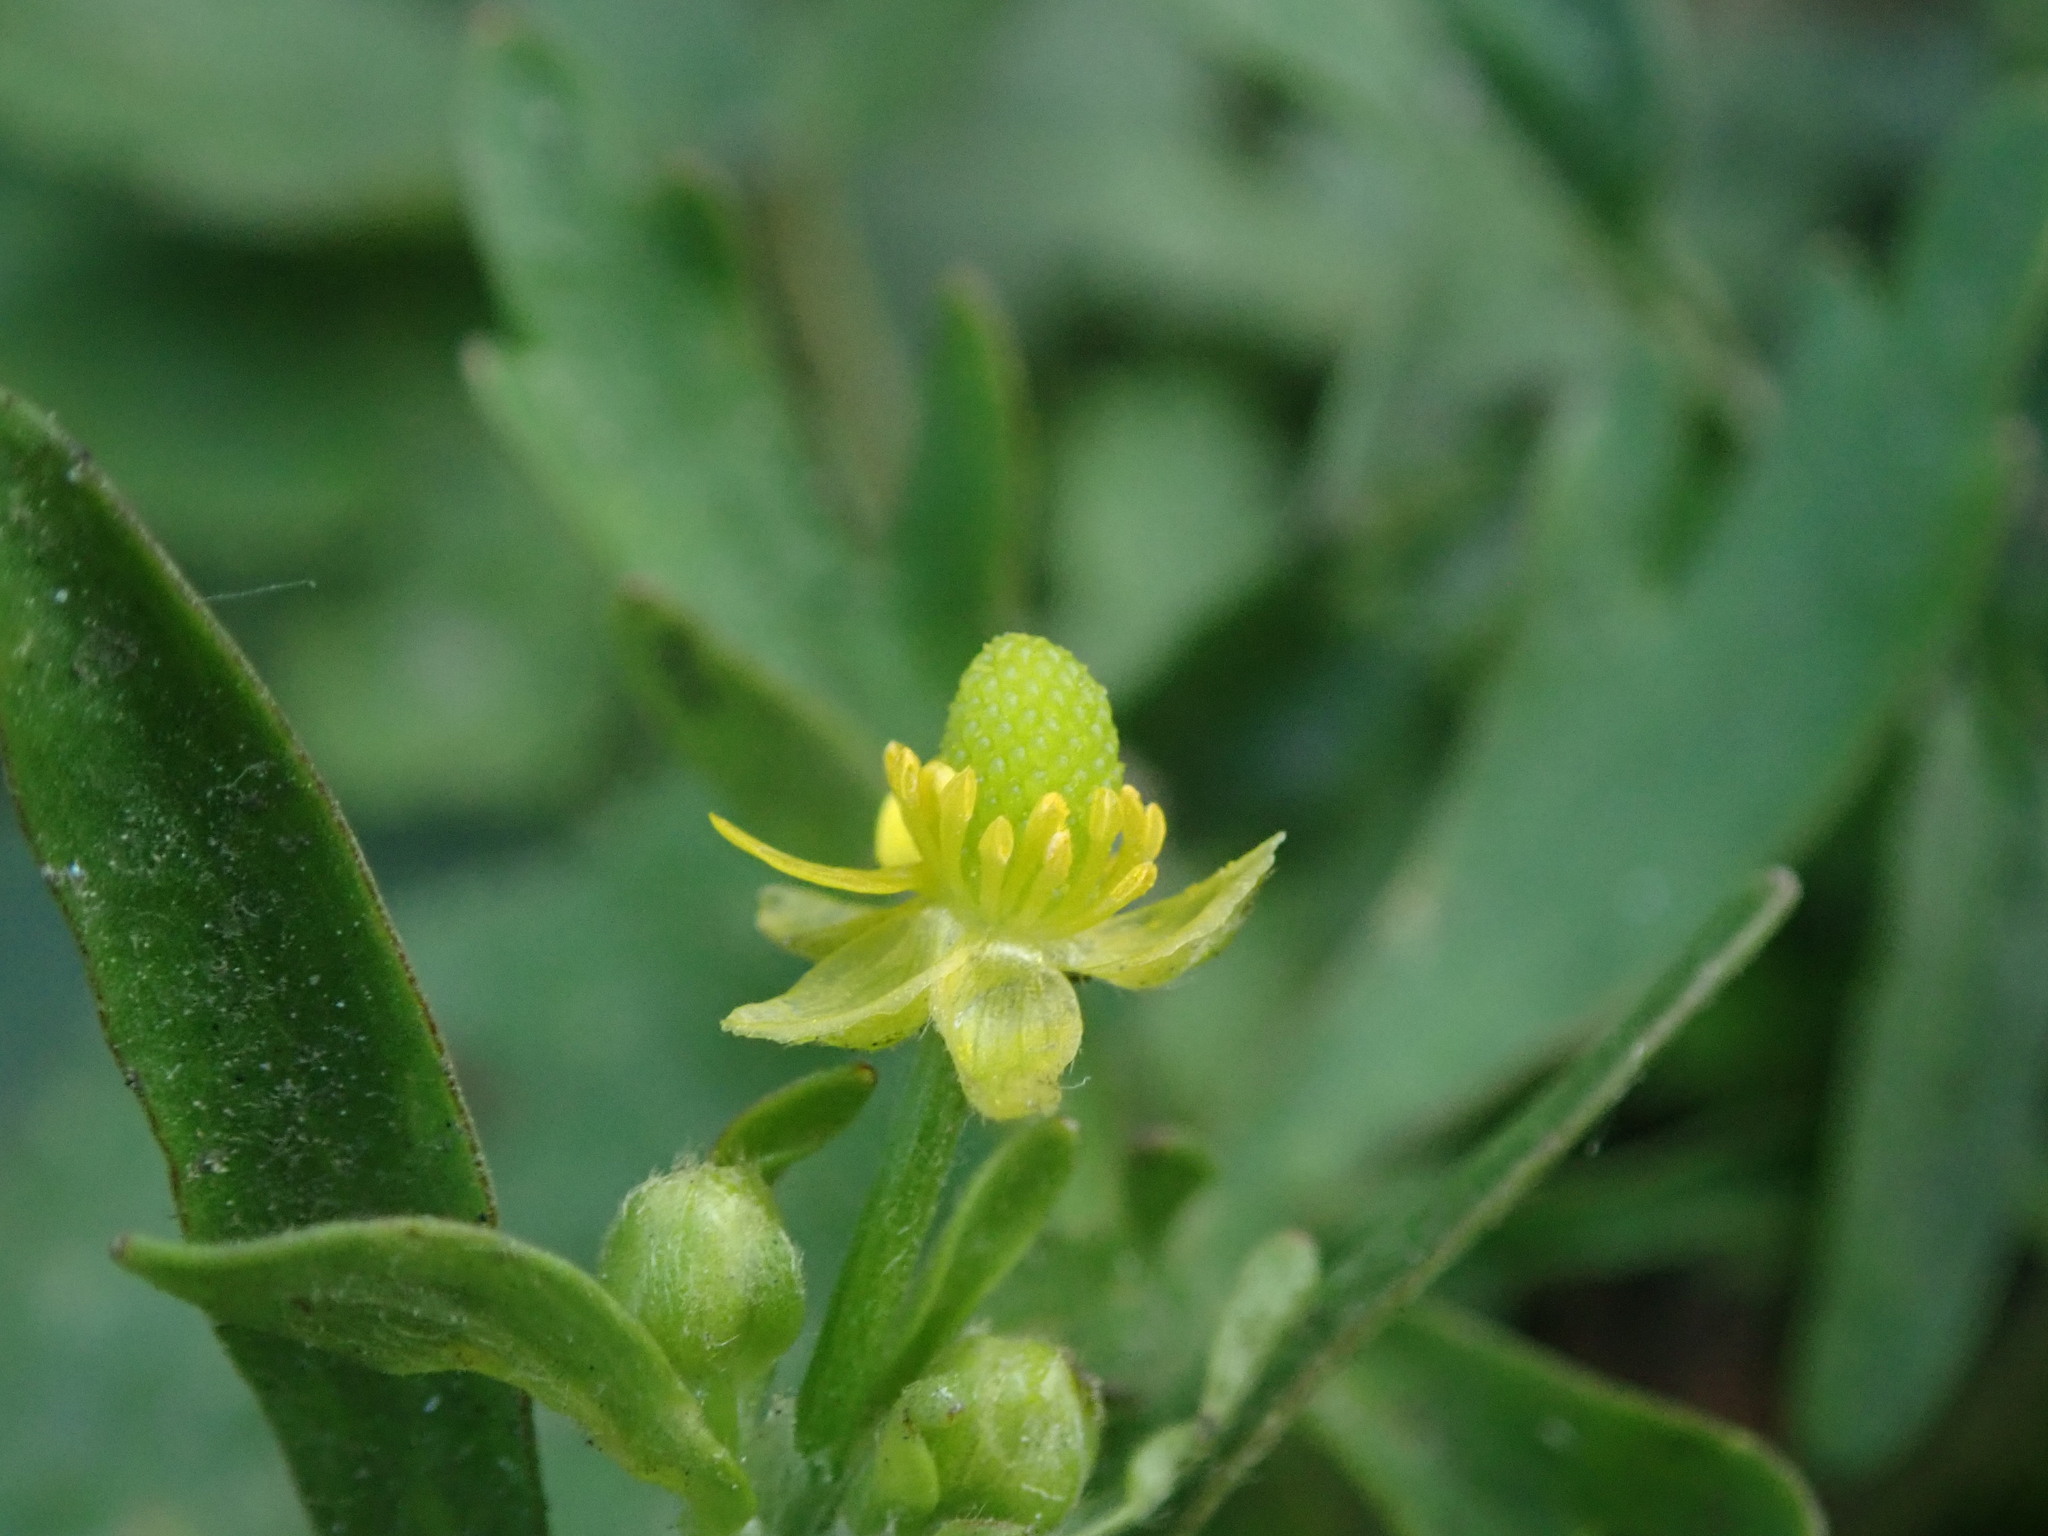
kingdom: Plantae
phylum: Tracheophyta
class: Magnoliopsida
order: Ranunculales
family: Ranunculaceae
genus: Ranunculus
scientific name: Ranunculus sceleratus
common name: Celery-leaved buttercup
